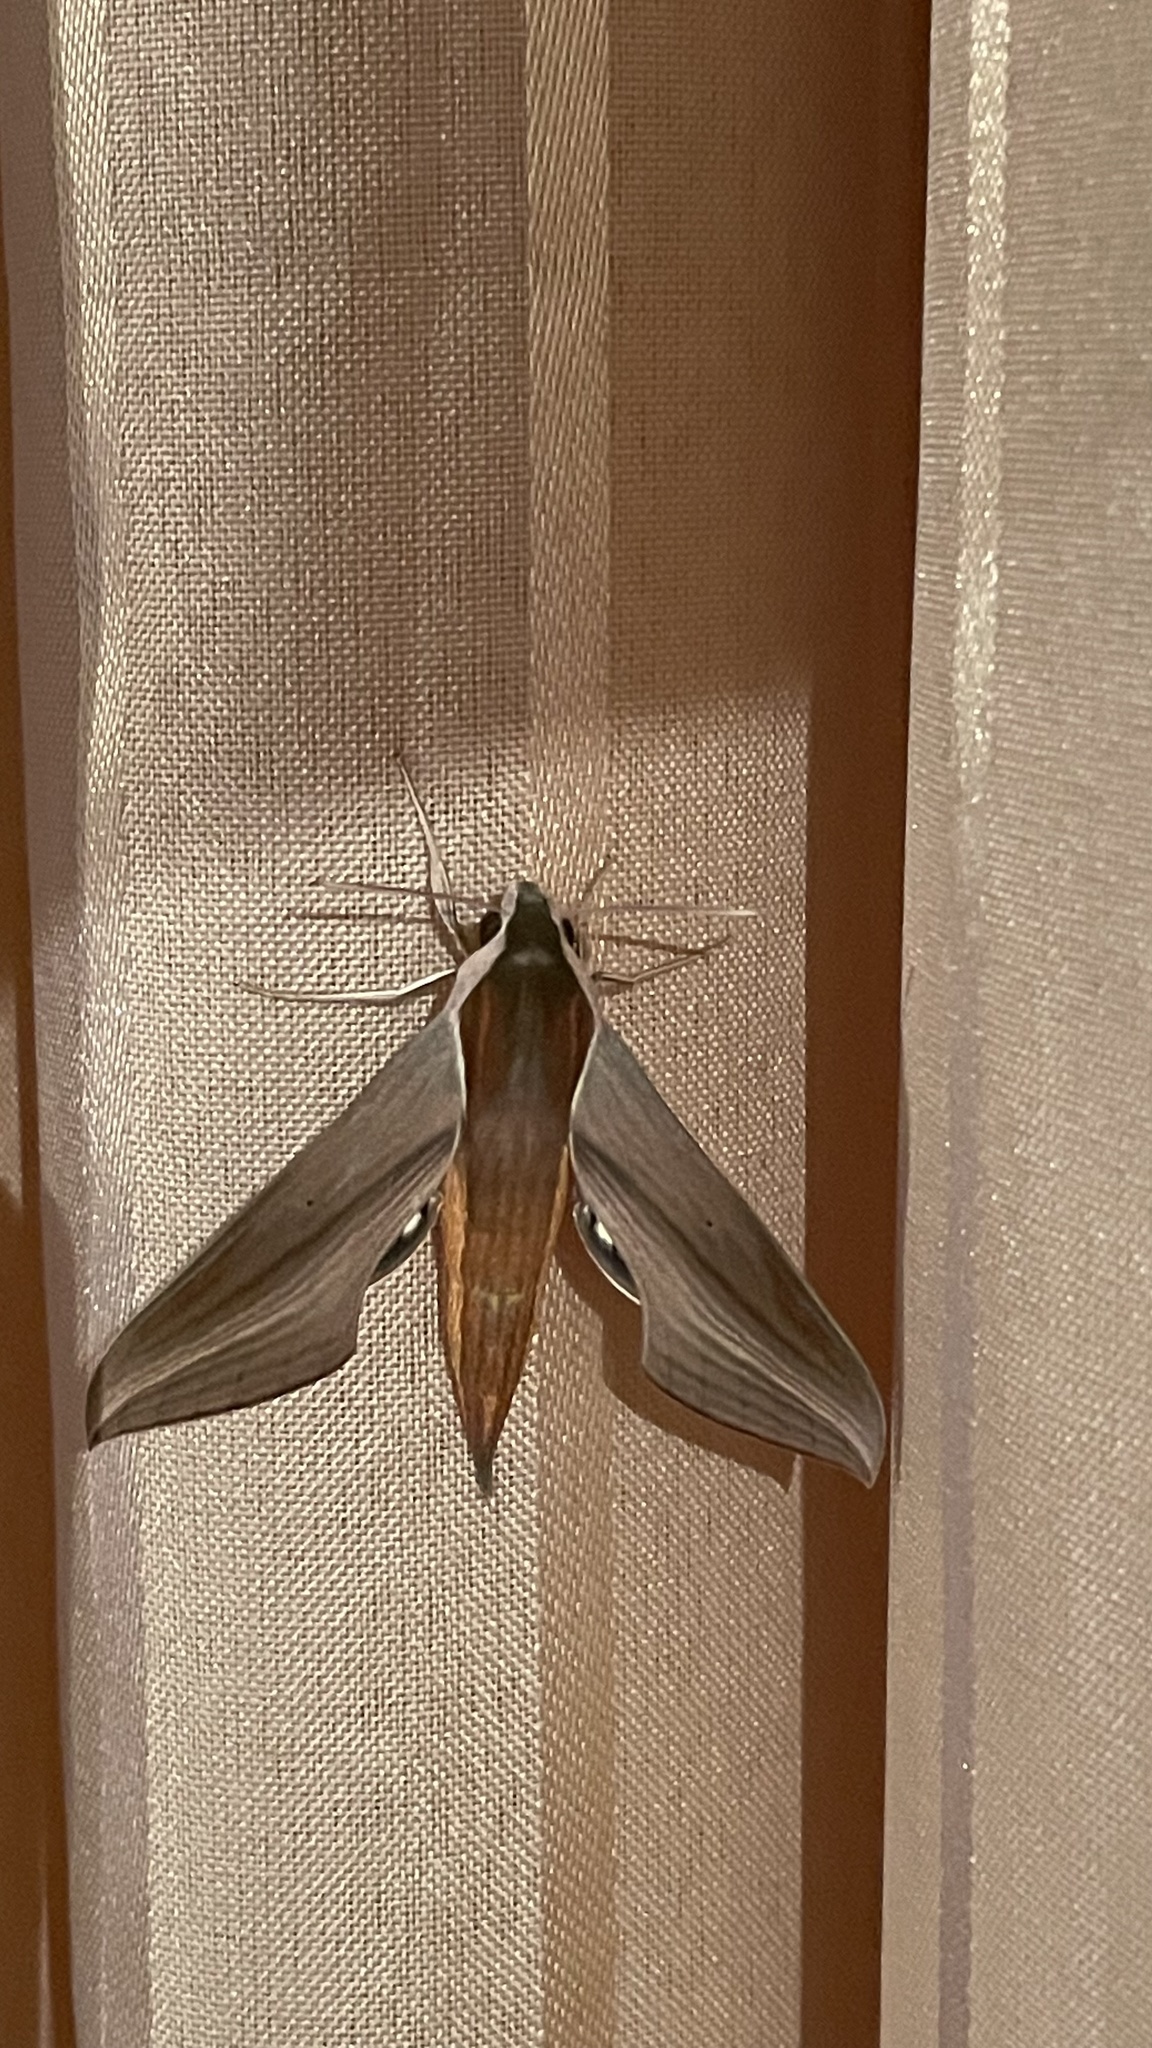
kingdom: Animalia
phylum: Arthropoda
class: Insecta
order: Lepidoptera
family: Sphingidae
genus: Xylophanes
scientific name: Xylophanes tersa
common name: Tersa sphinx
